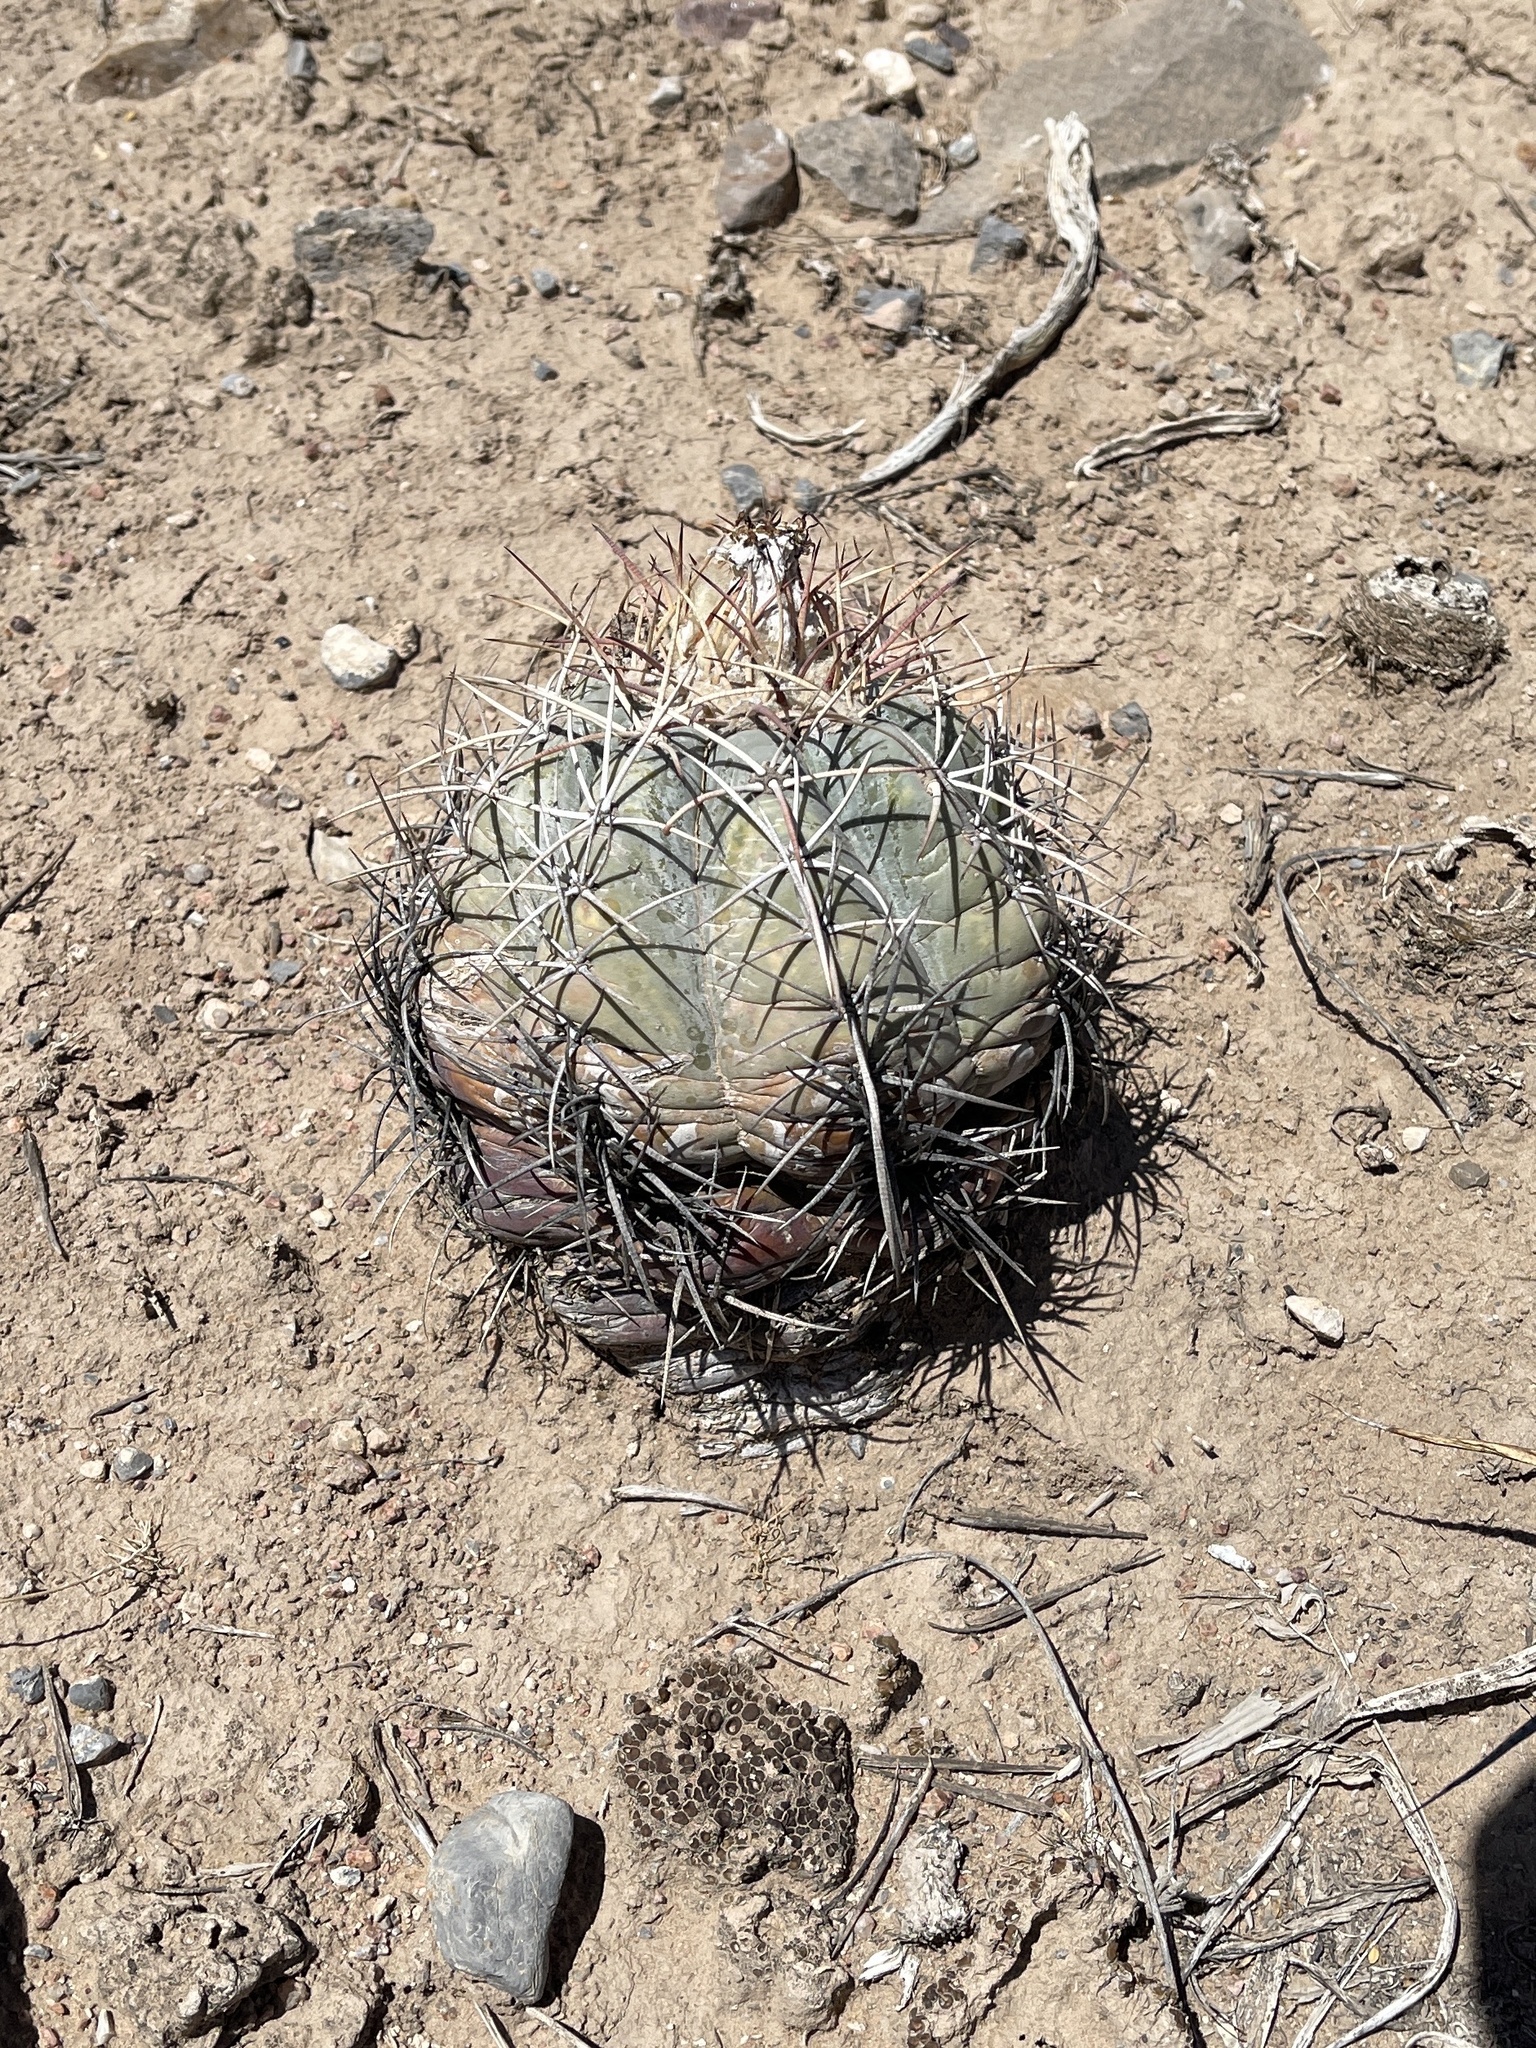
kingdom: Plantae
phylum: Tracheophyta
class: Magnoliopsida
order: Caryophyllales
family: Cactaceae
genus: Echinocactus
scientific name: Echinocactus horizonthalonius
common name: Devilshead
